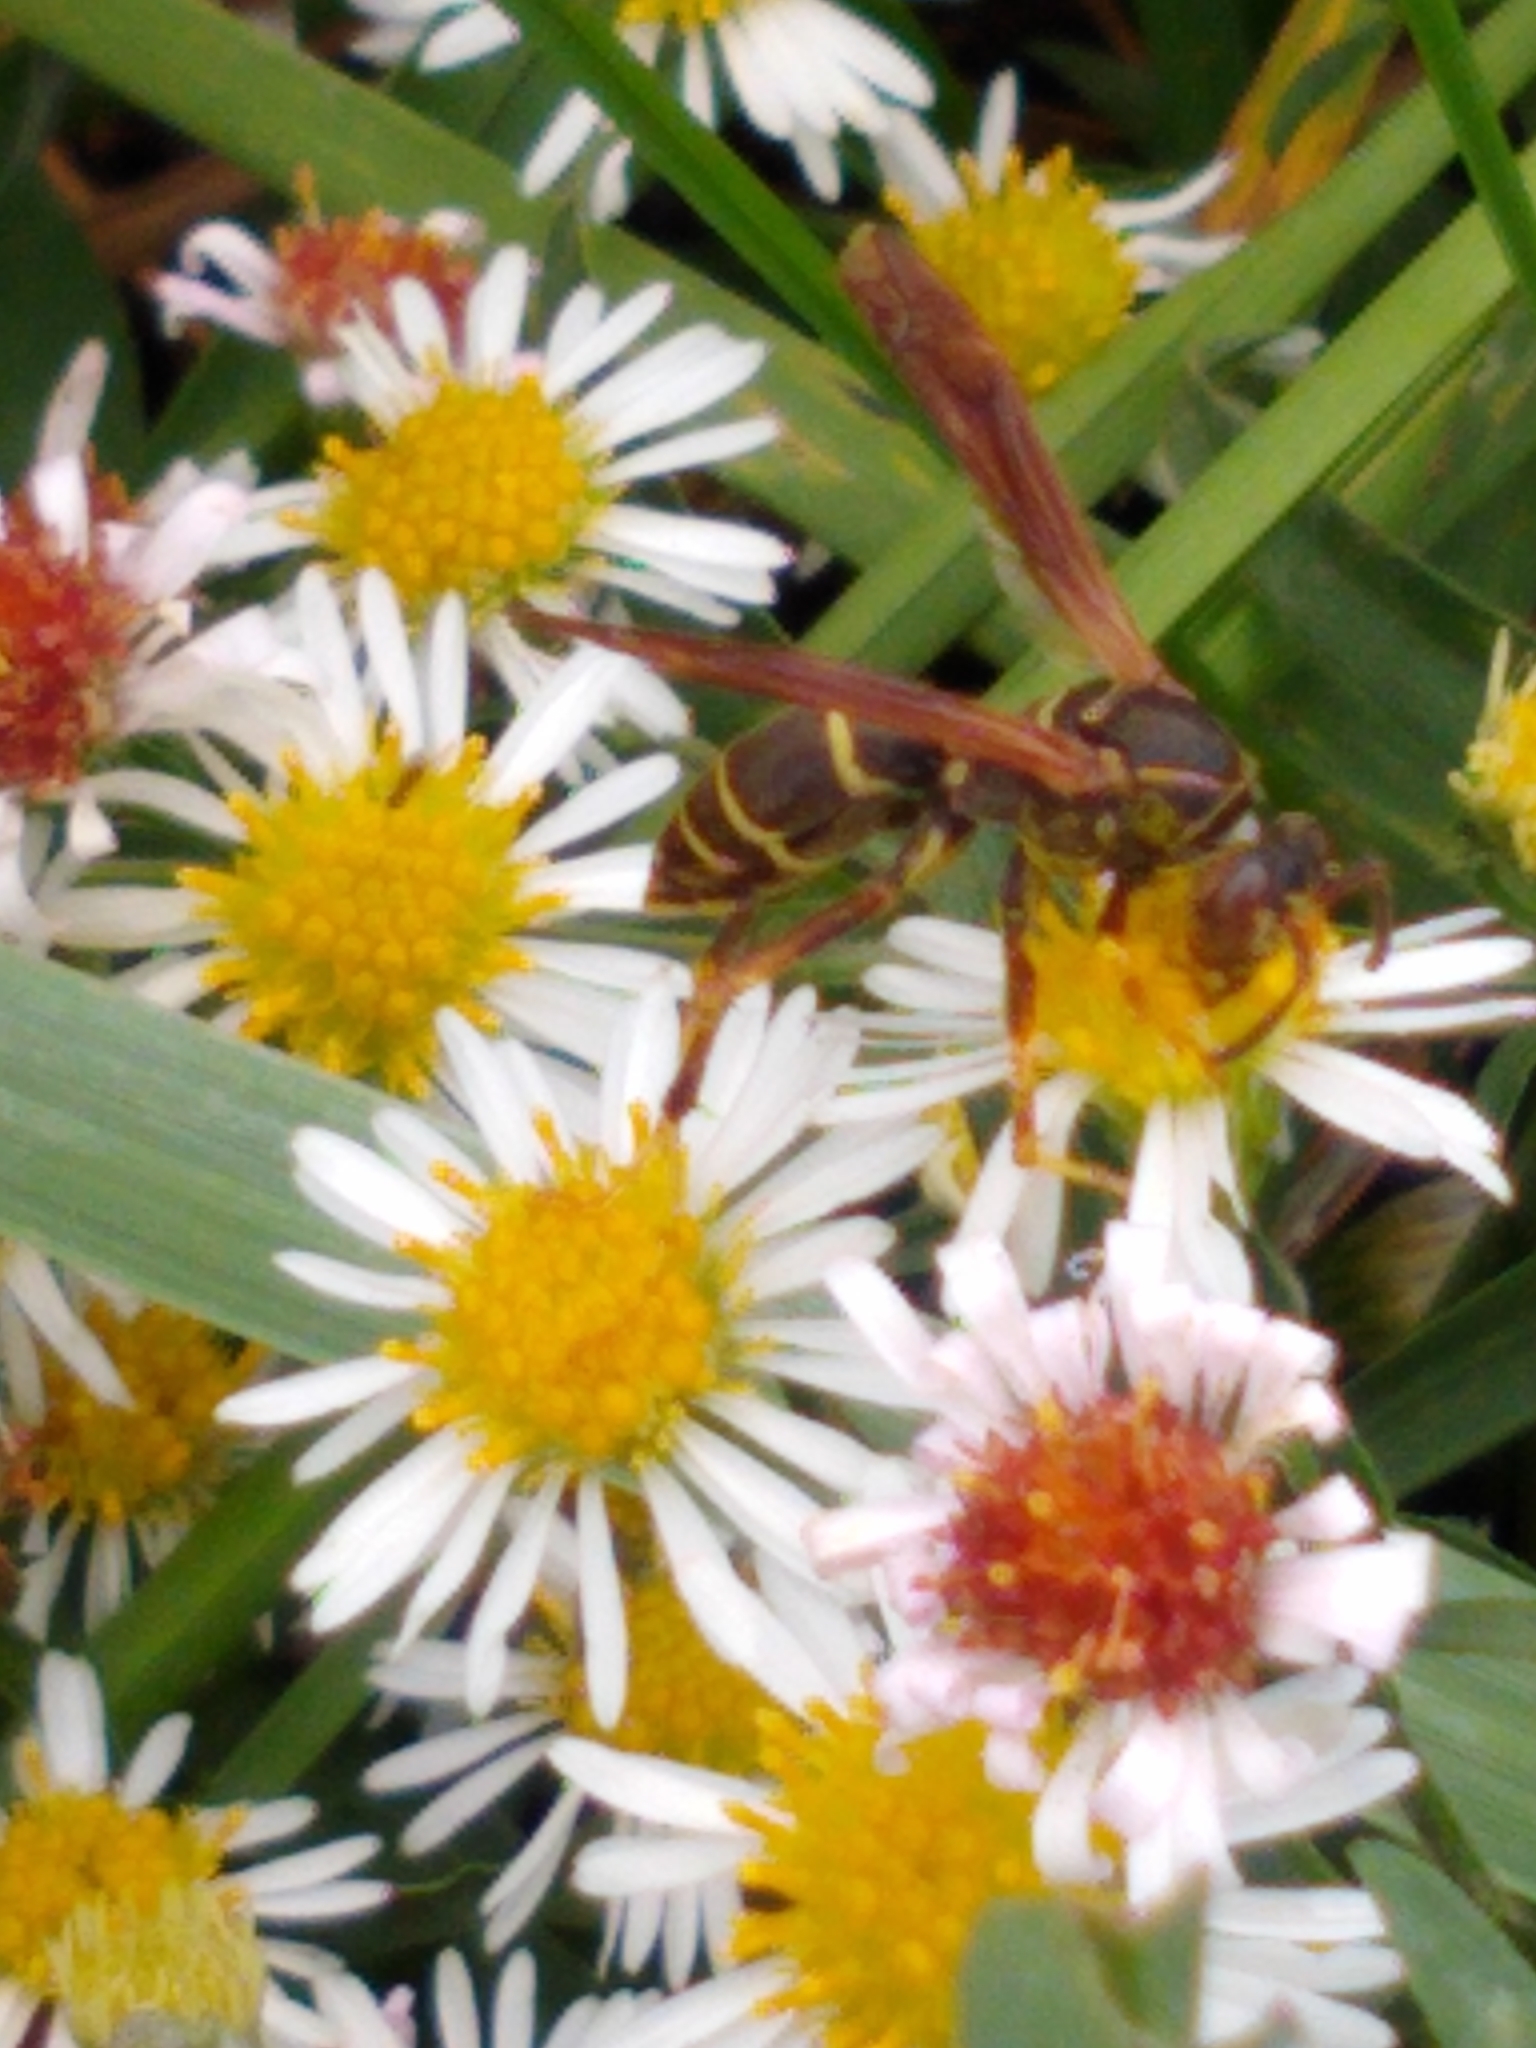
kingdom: Animalia
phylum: Arthropoda
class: Insecta
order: Hymenoptera
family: Eumenidae
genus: Polistes
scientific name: Polistes fuscatus
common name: Dark paper wasp
